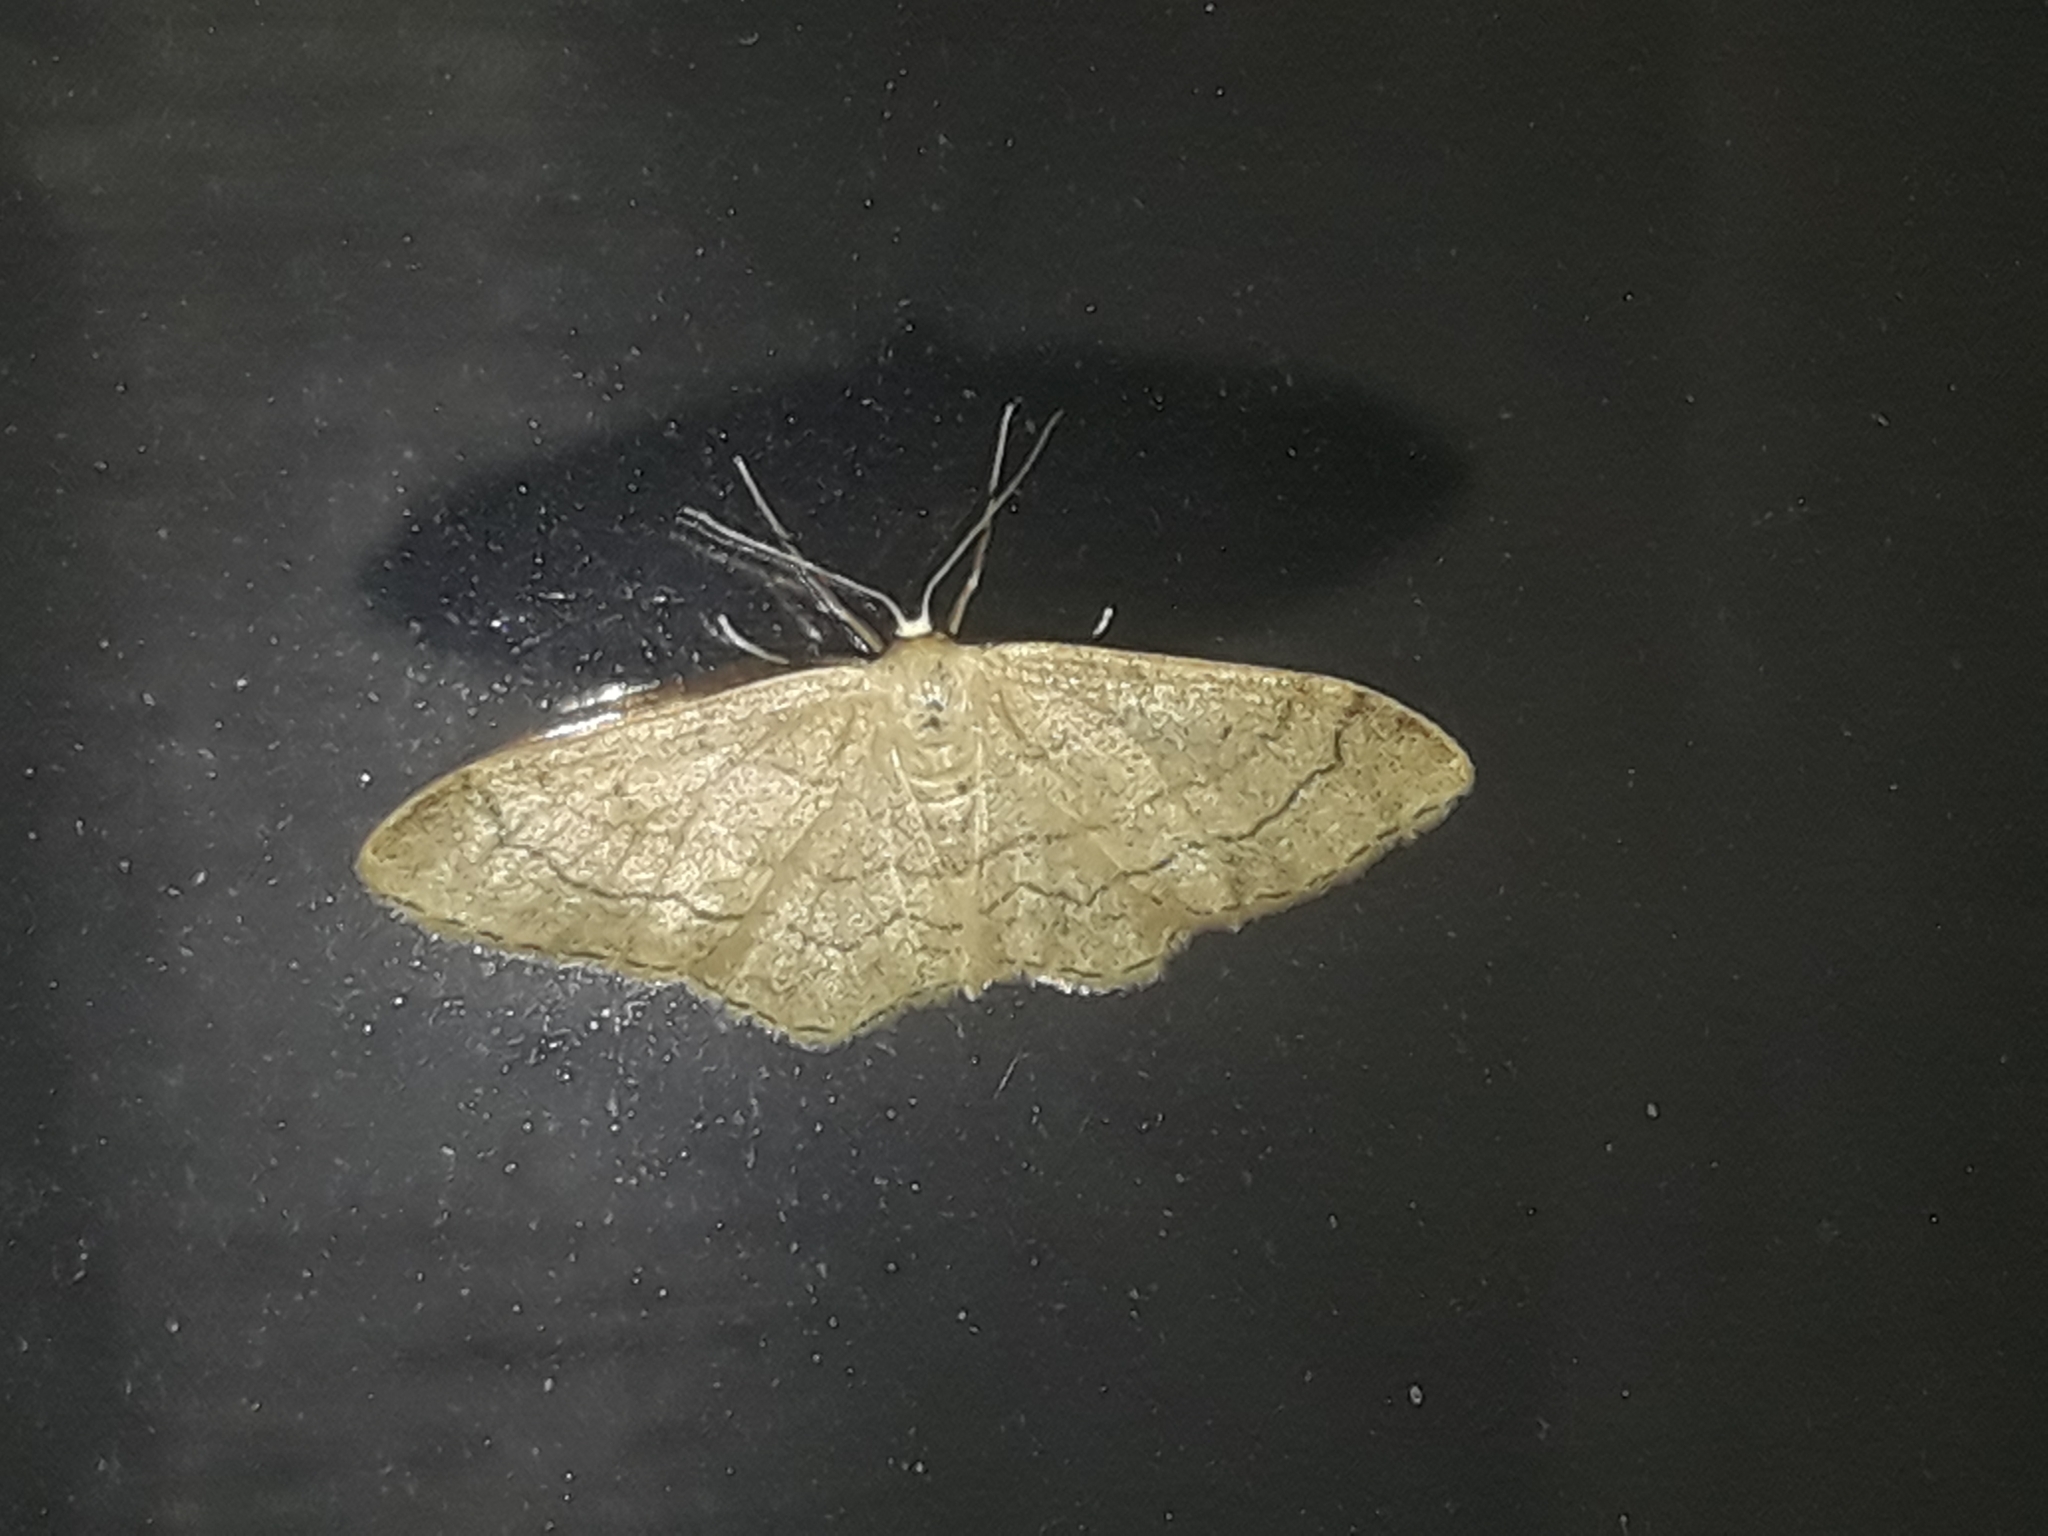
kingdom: Animalia
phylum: Arthropoda
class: Insecta
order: Lepidoptera
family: Geometridae
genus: Idaea
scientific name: Idaea aversata
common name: Riband wave
